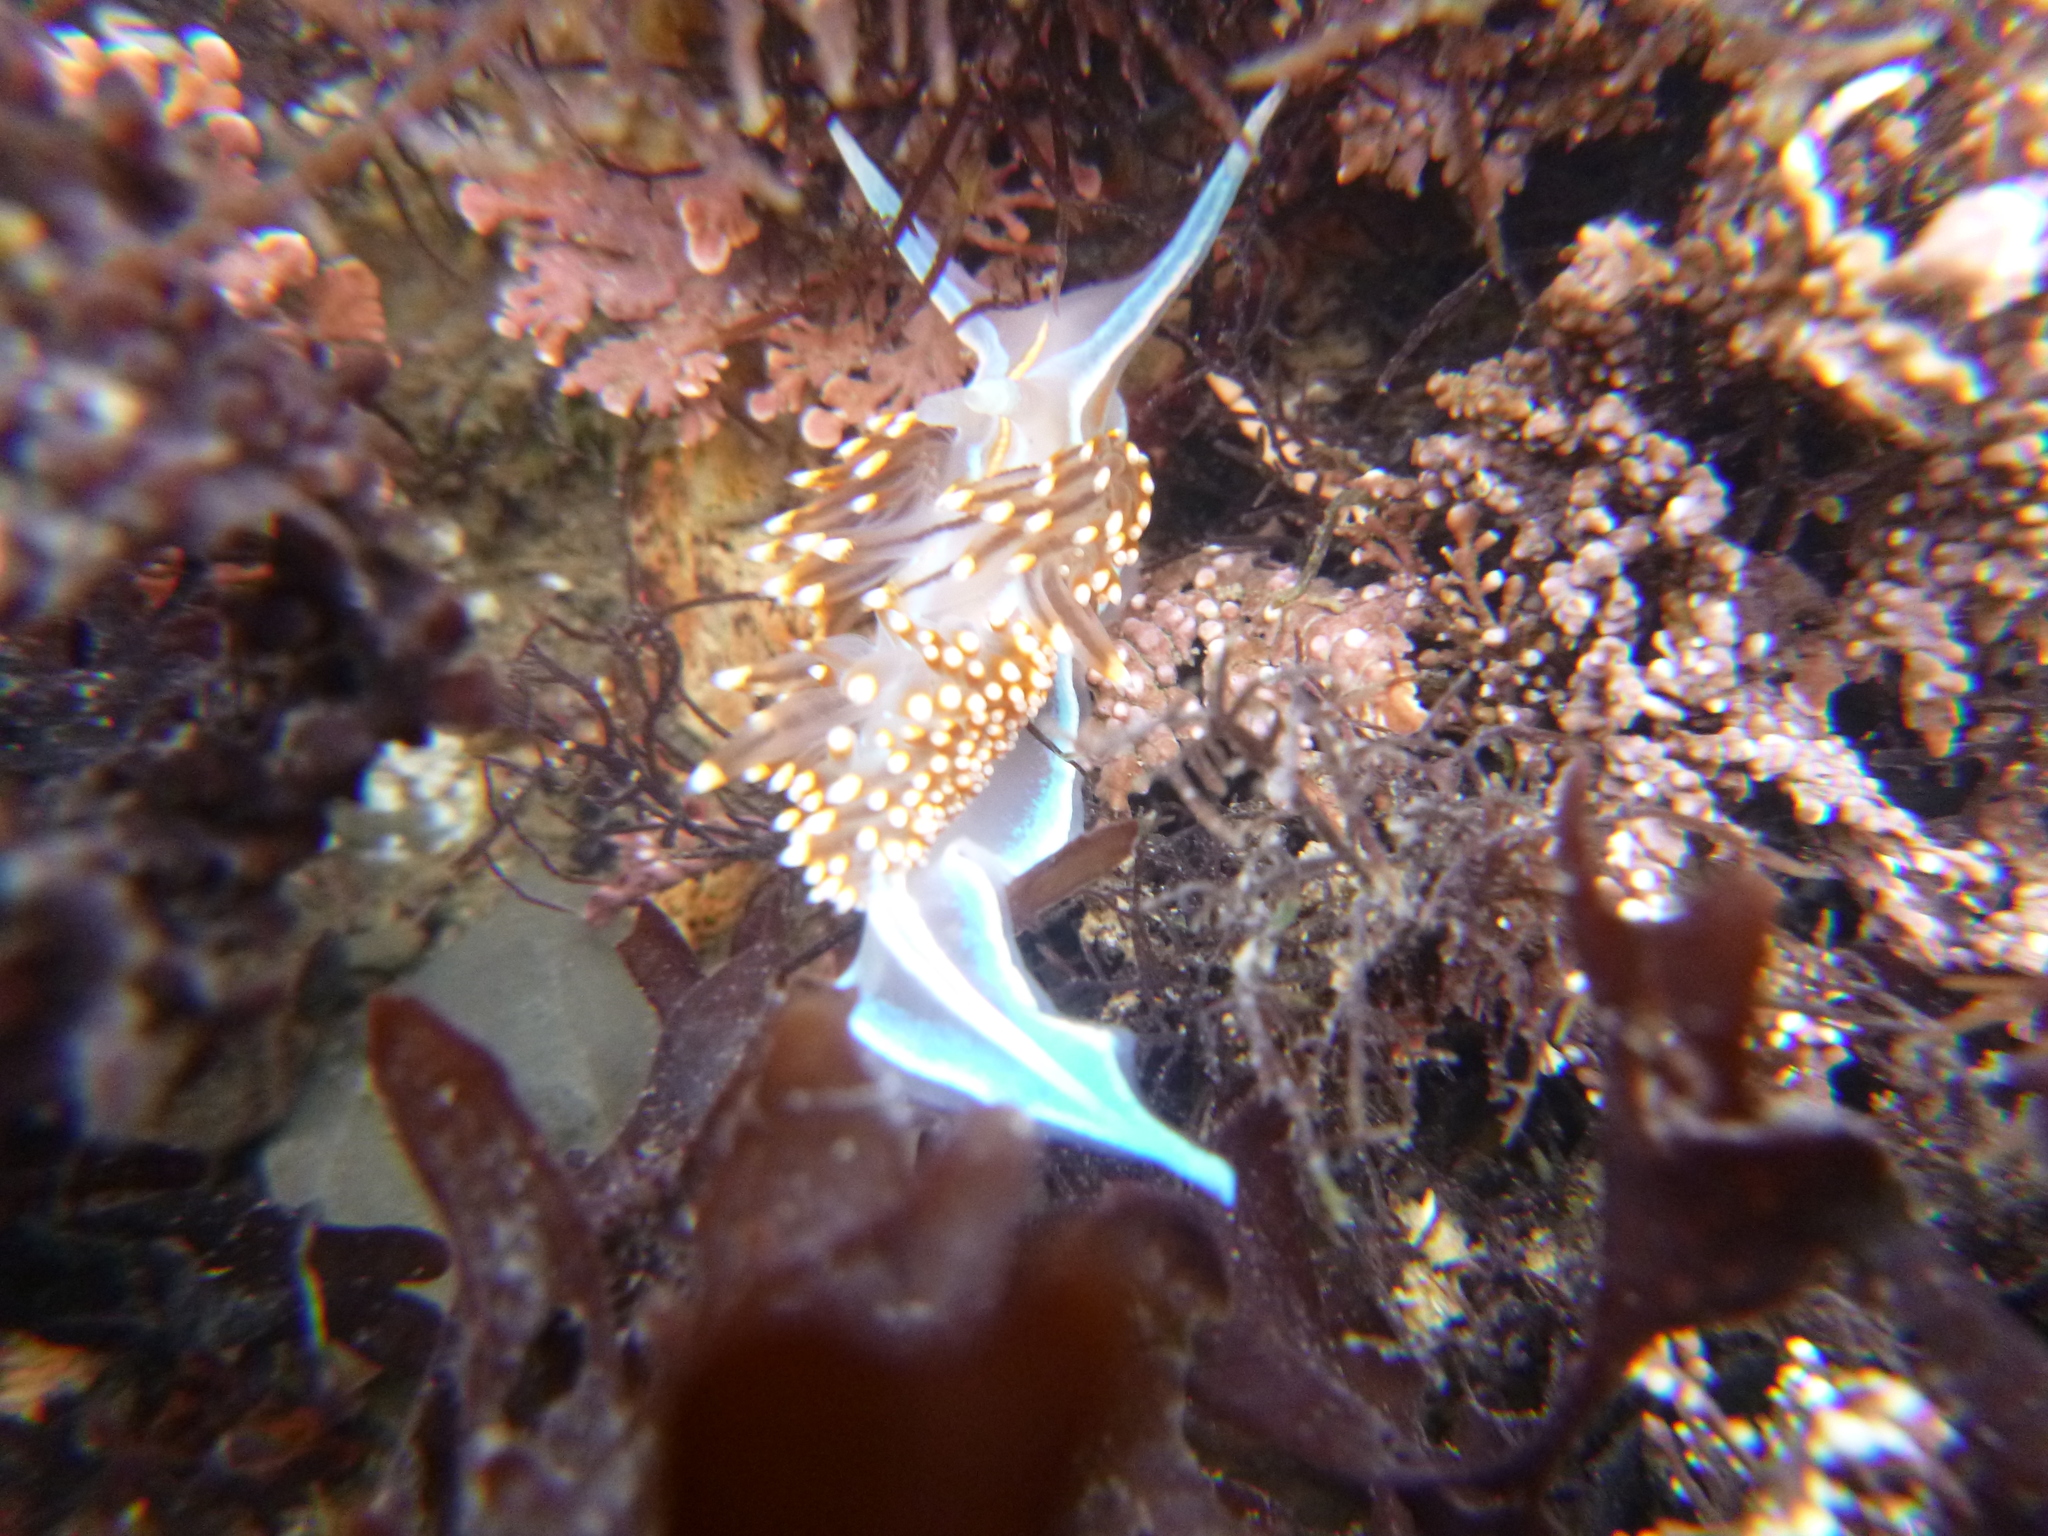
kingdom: Animalia
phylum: Mollusca
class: Gastropoda
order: Nudibranchia
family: Myrrhinidae
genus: Hermissenda
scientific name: Hermissenda opalescens
